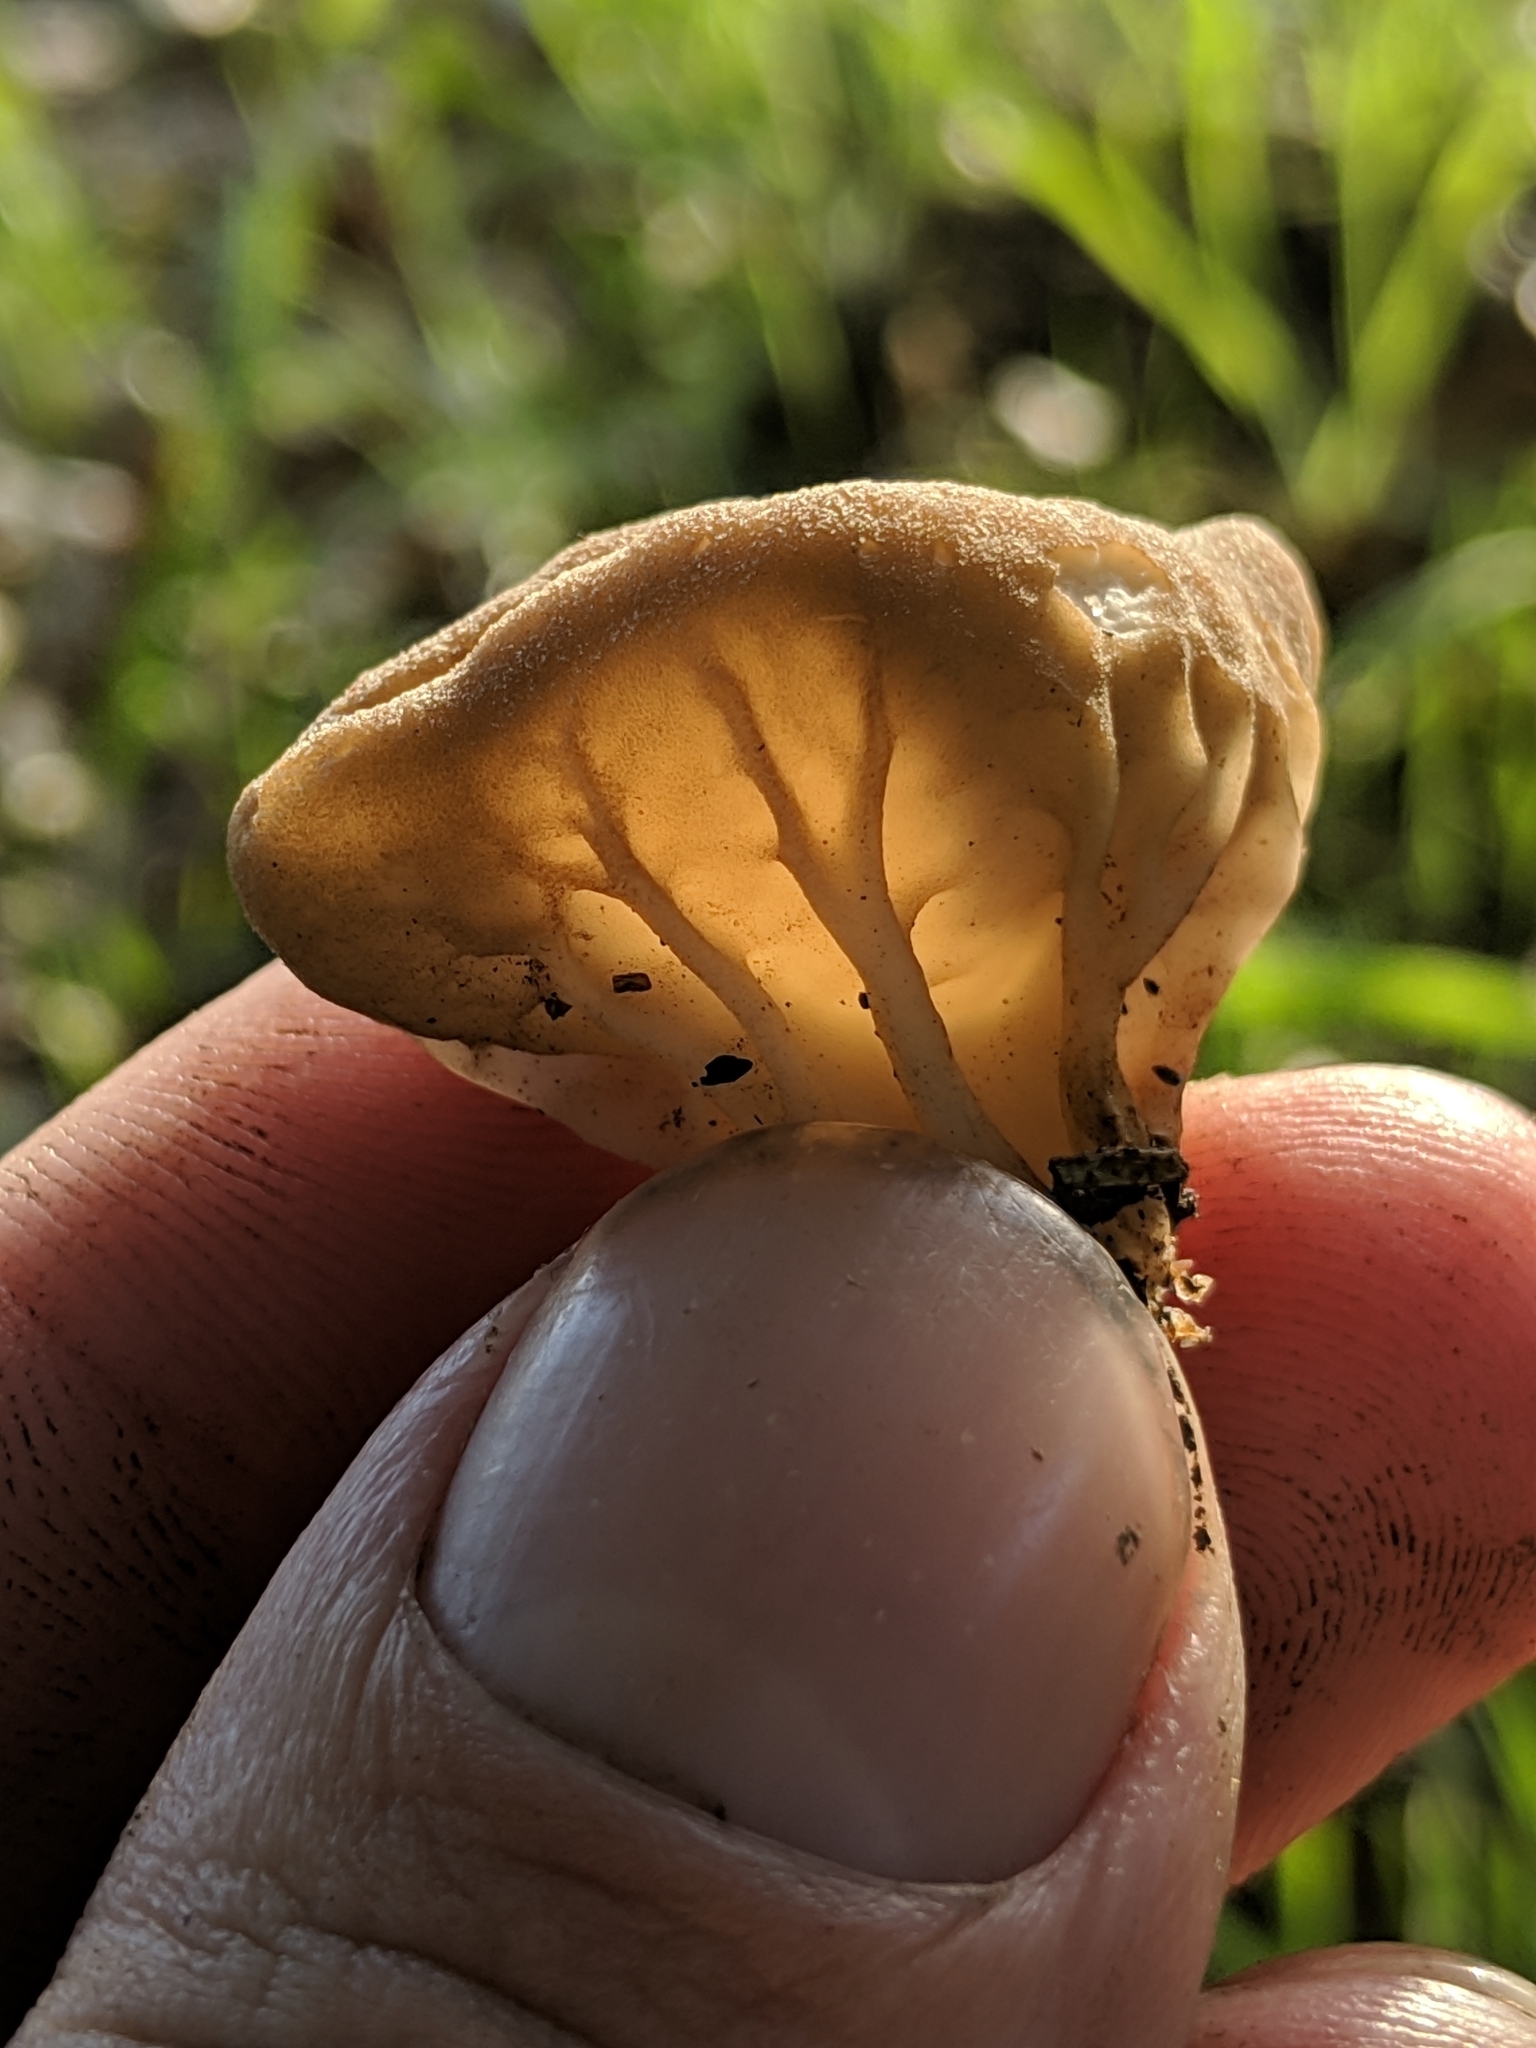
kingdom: Fungi
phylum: Ascomycota
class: Pezizomycetes
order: Pezizales
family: Helvellaceae
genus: Helvella
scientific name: Helvella acetabulum
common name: Vinegar cup
